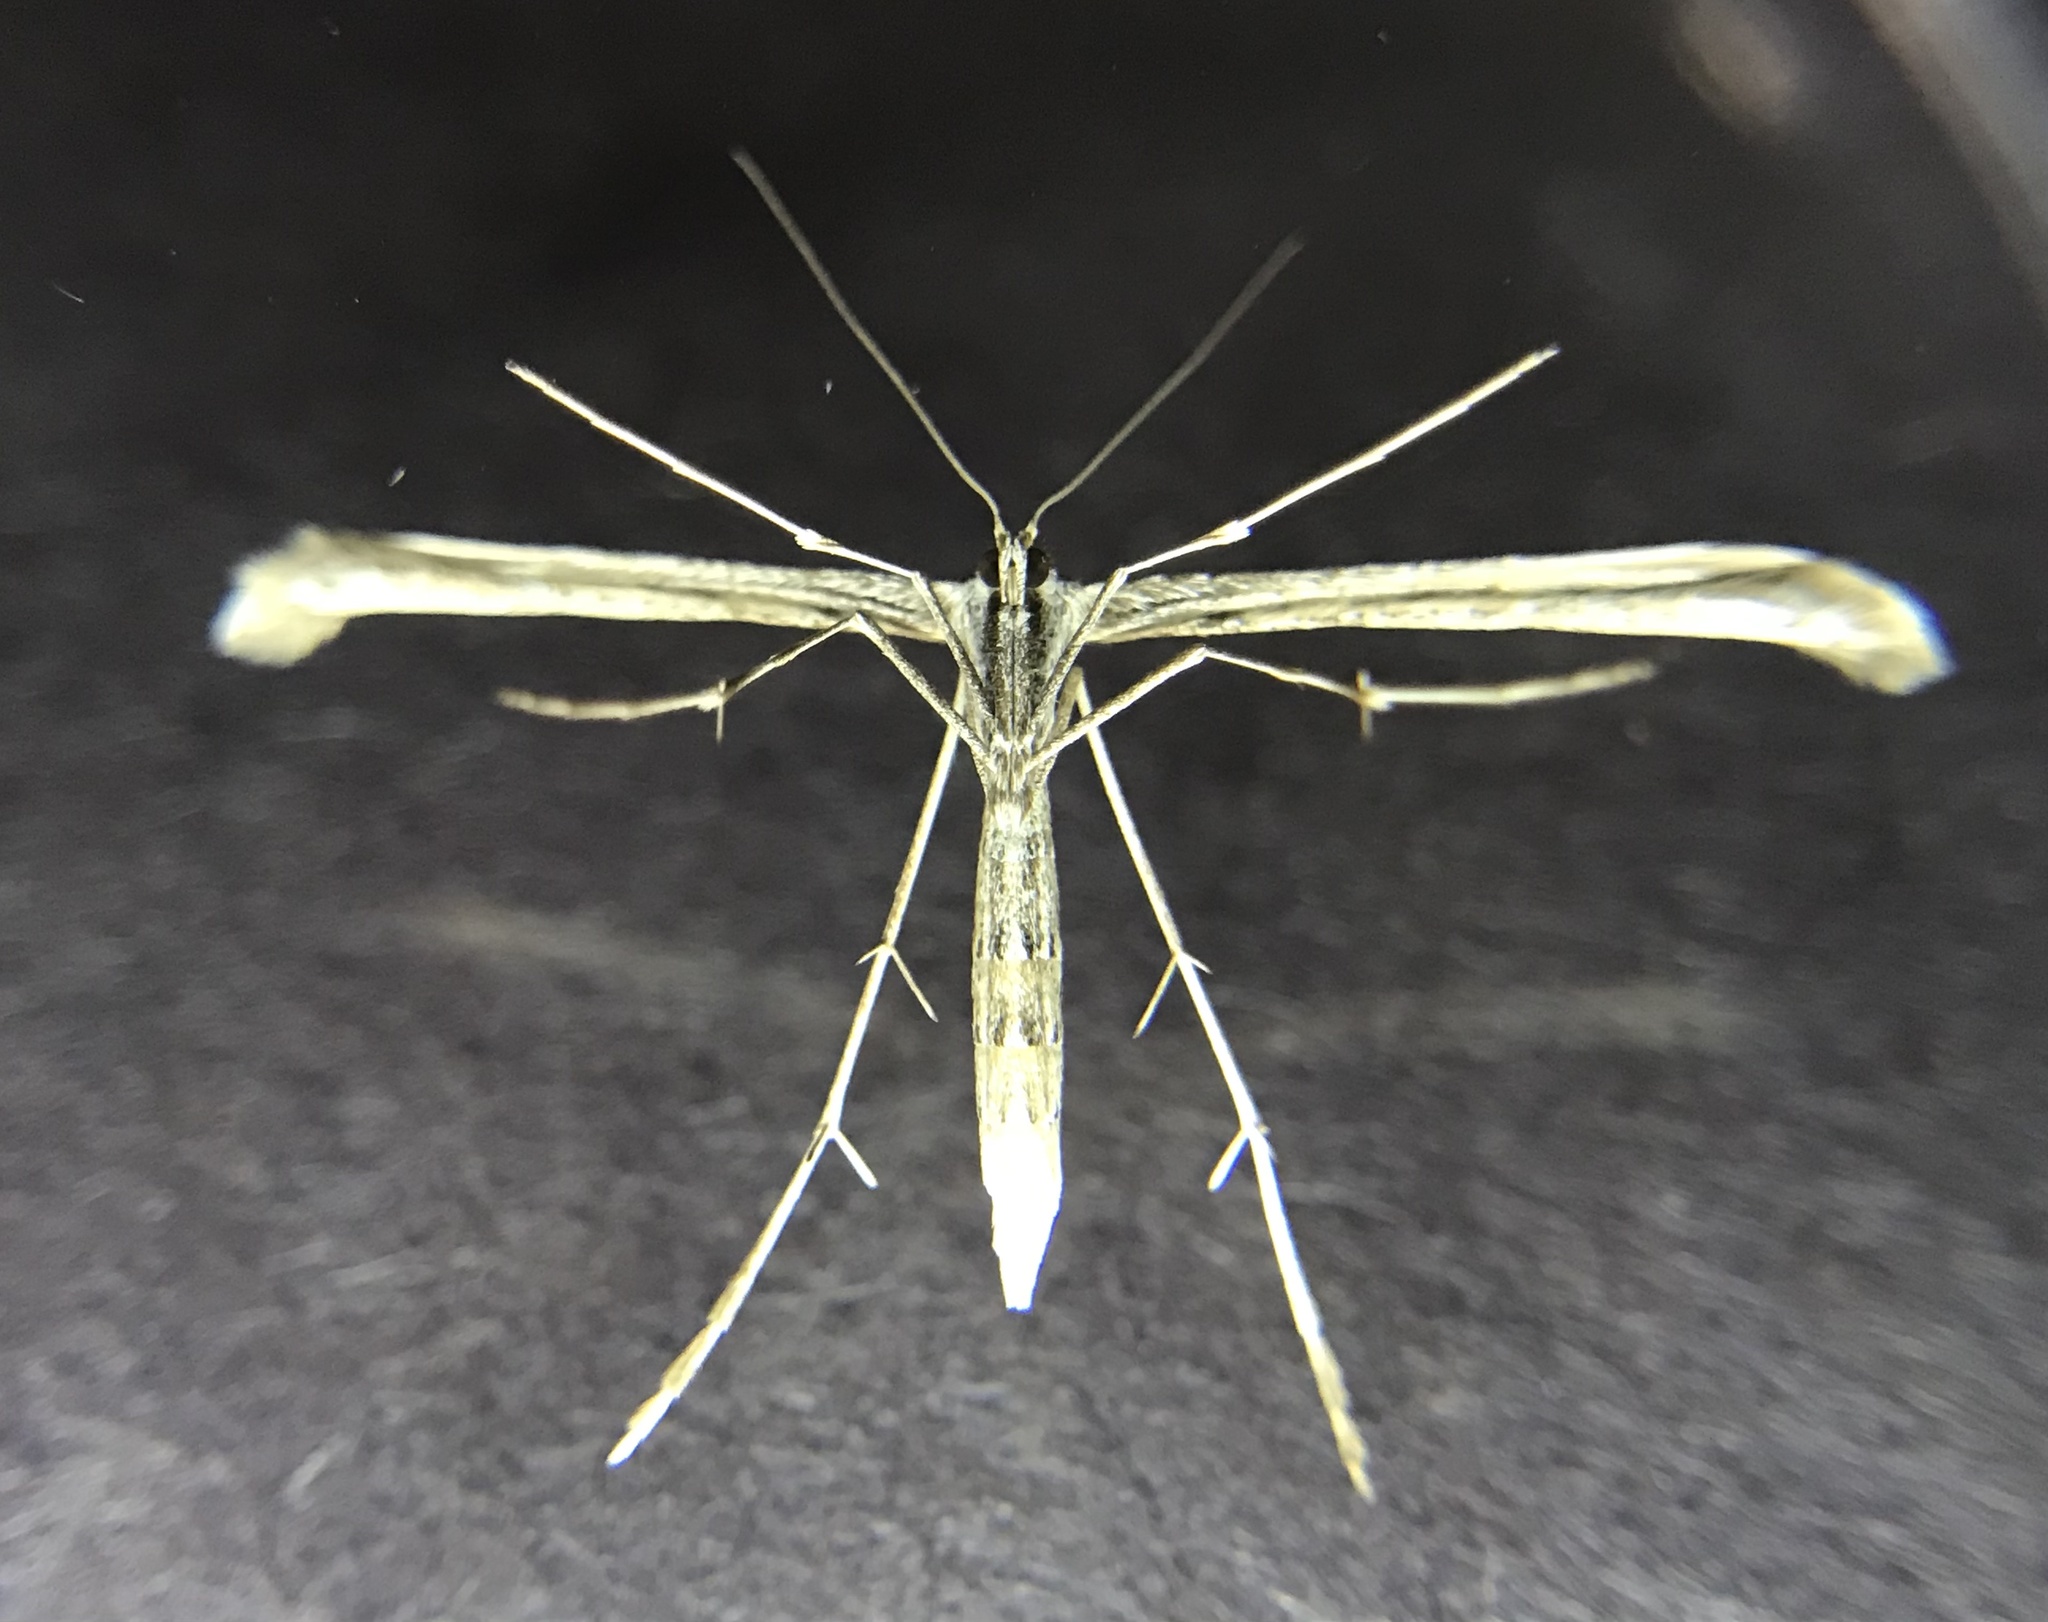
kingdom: Animalia
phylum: Arthropoda
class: Insecta
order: Lepidoptera
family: Pterophoridae
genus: Emmelina
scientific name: Emmelina monodactyla
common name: Common plume
